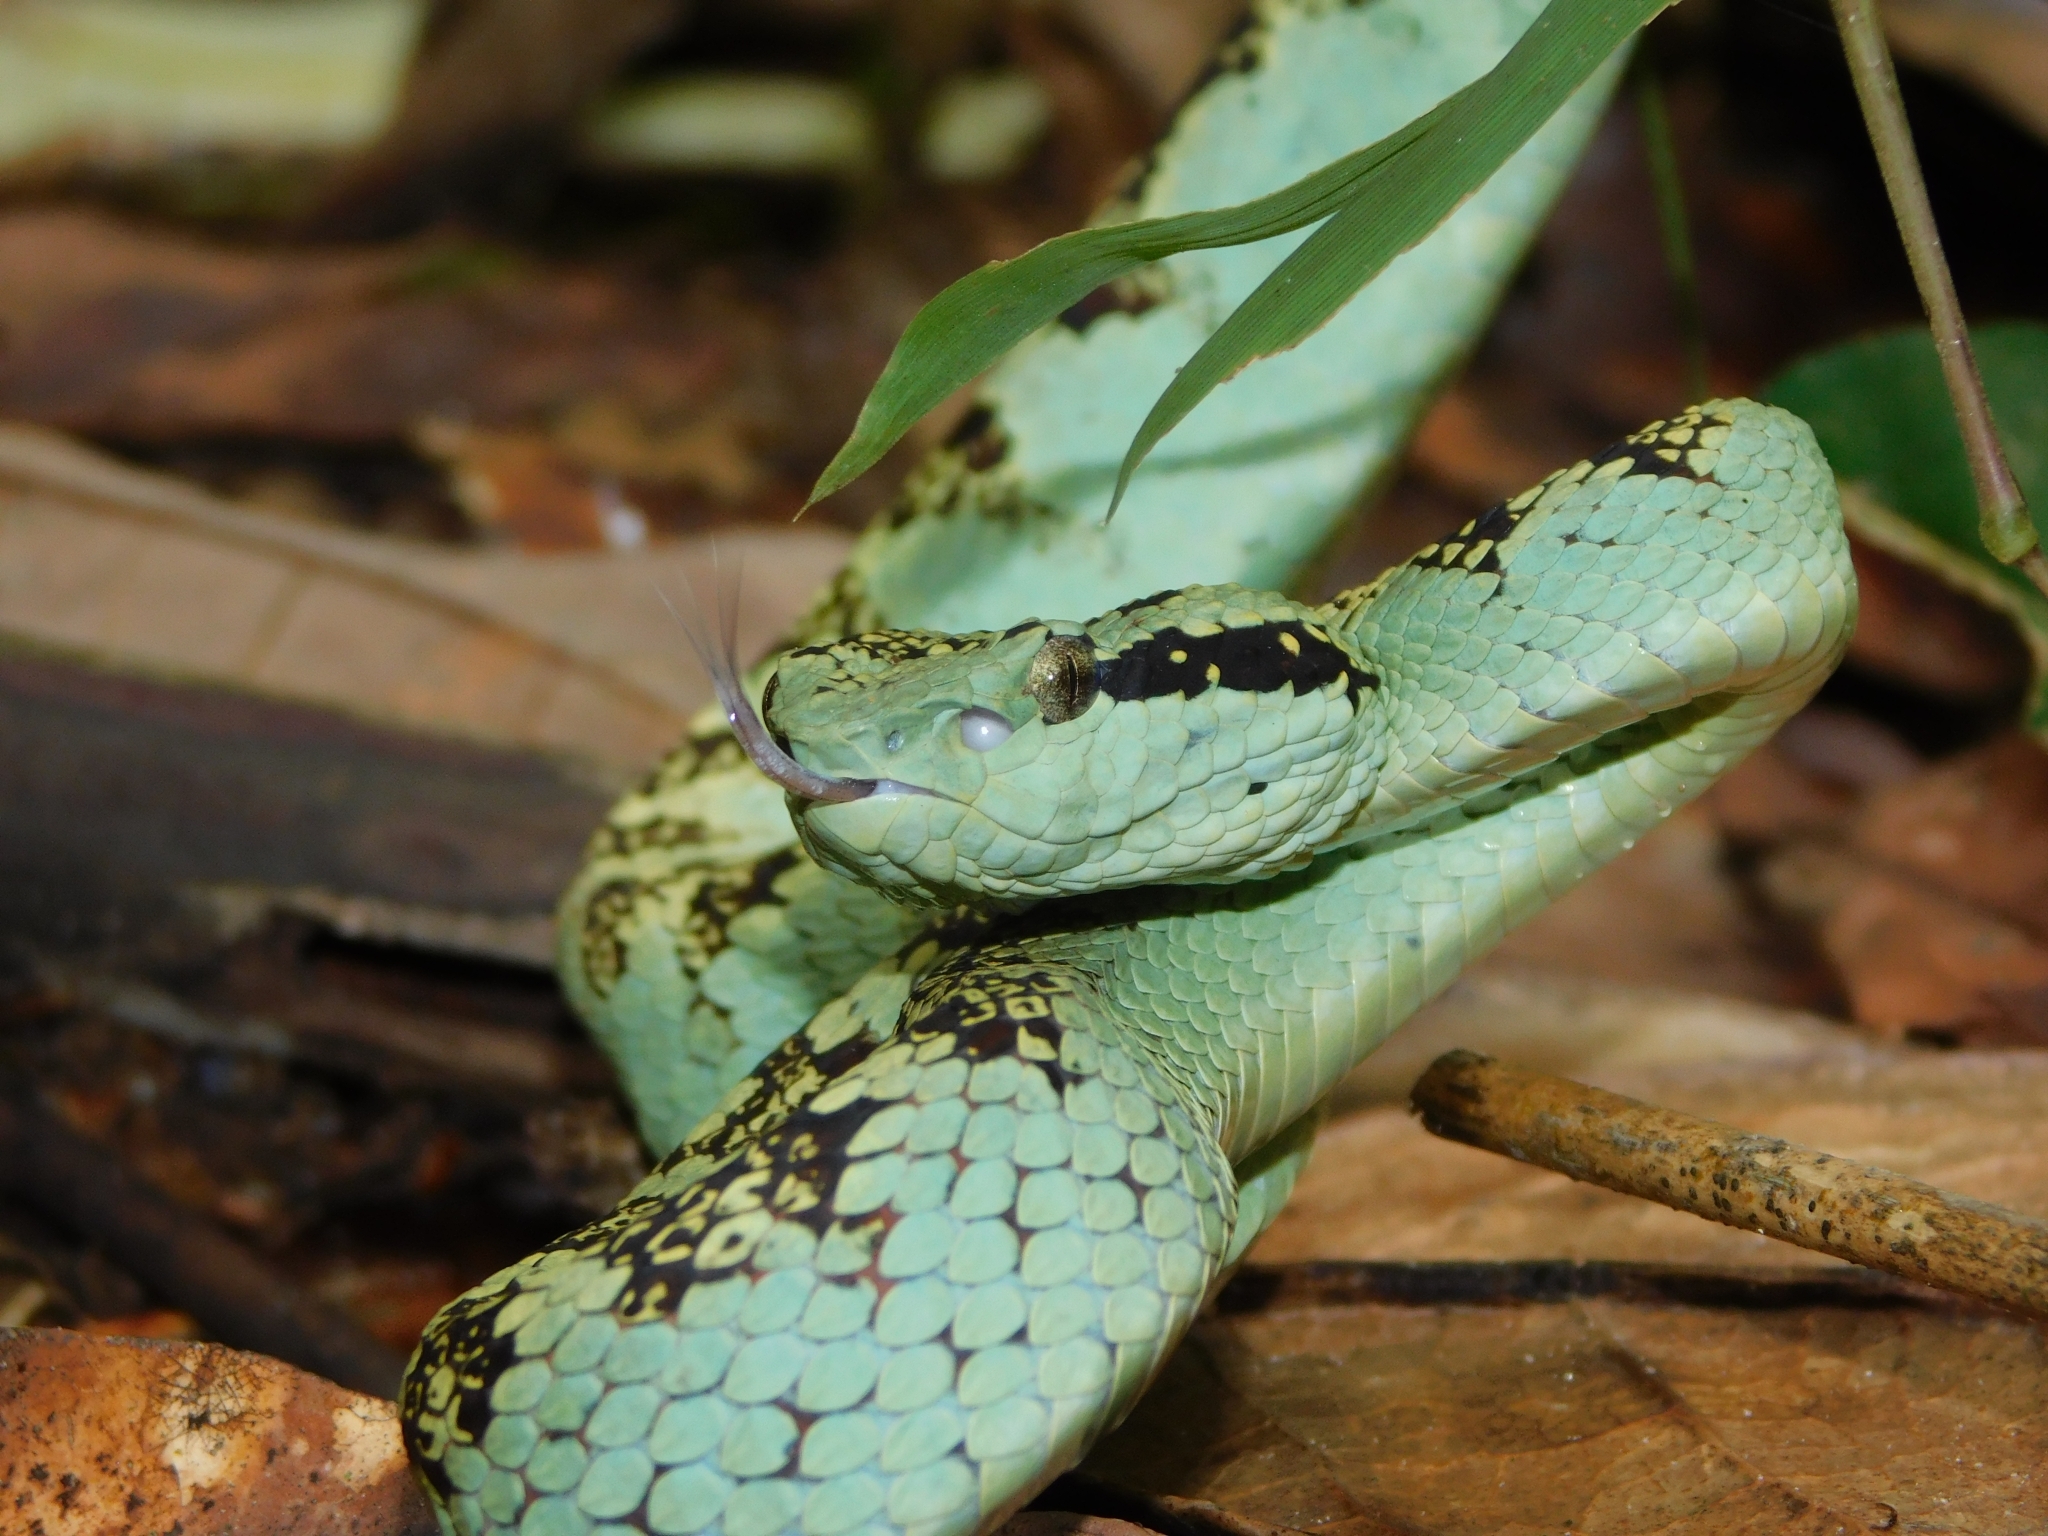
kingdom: Animalia
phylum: Chordata
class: Squamata
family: Viperidae
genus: Craspedocephalus
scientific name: Craspedocephalus malabaricus
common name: Malabarian pit viper
